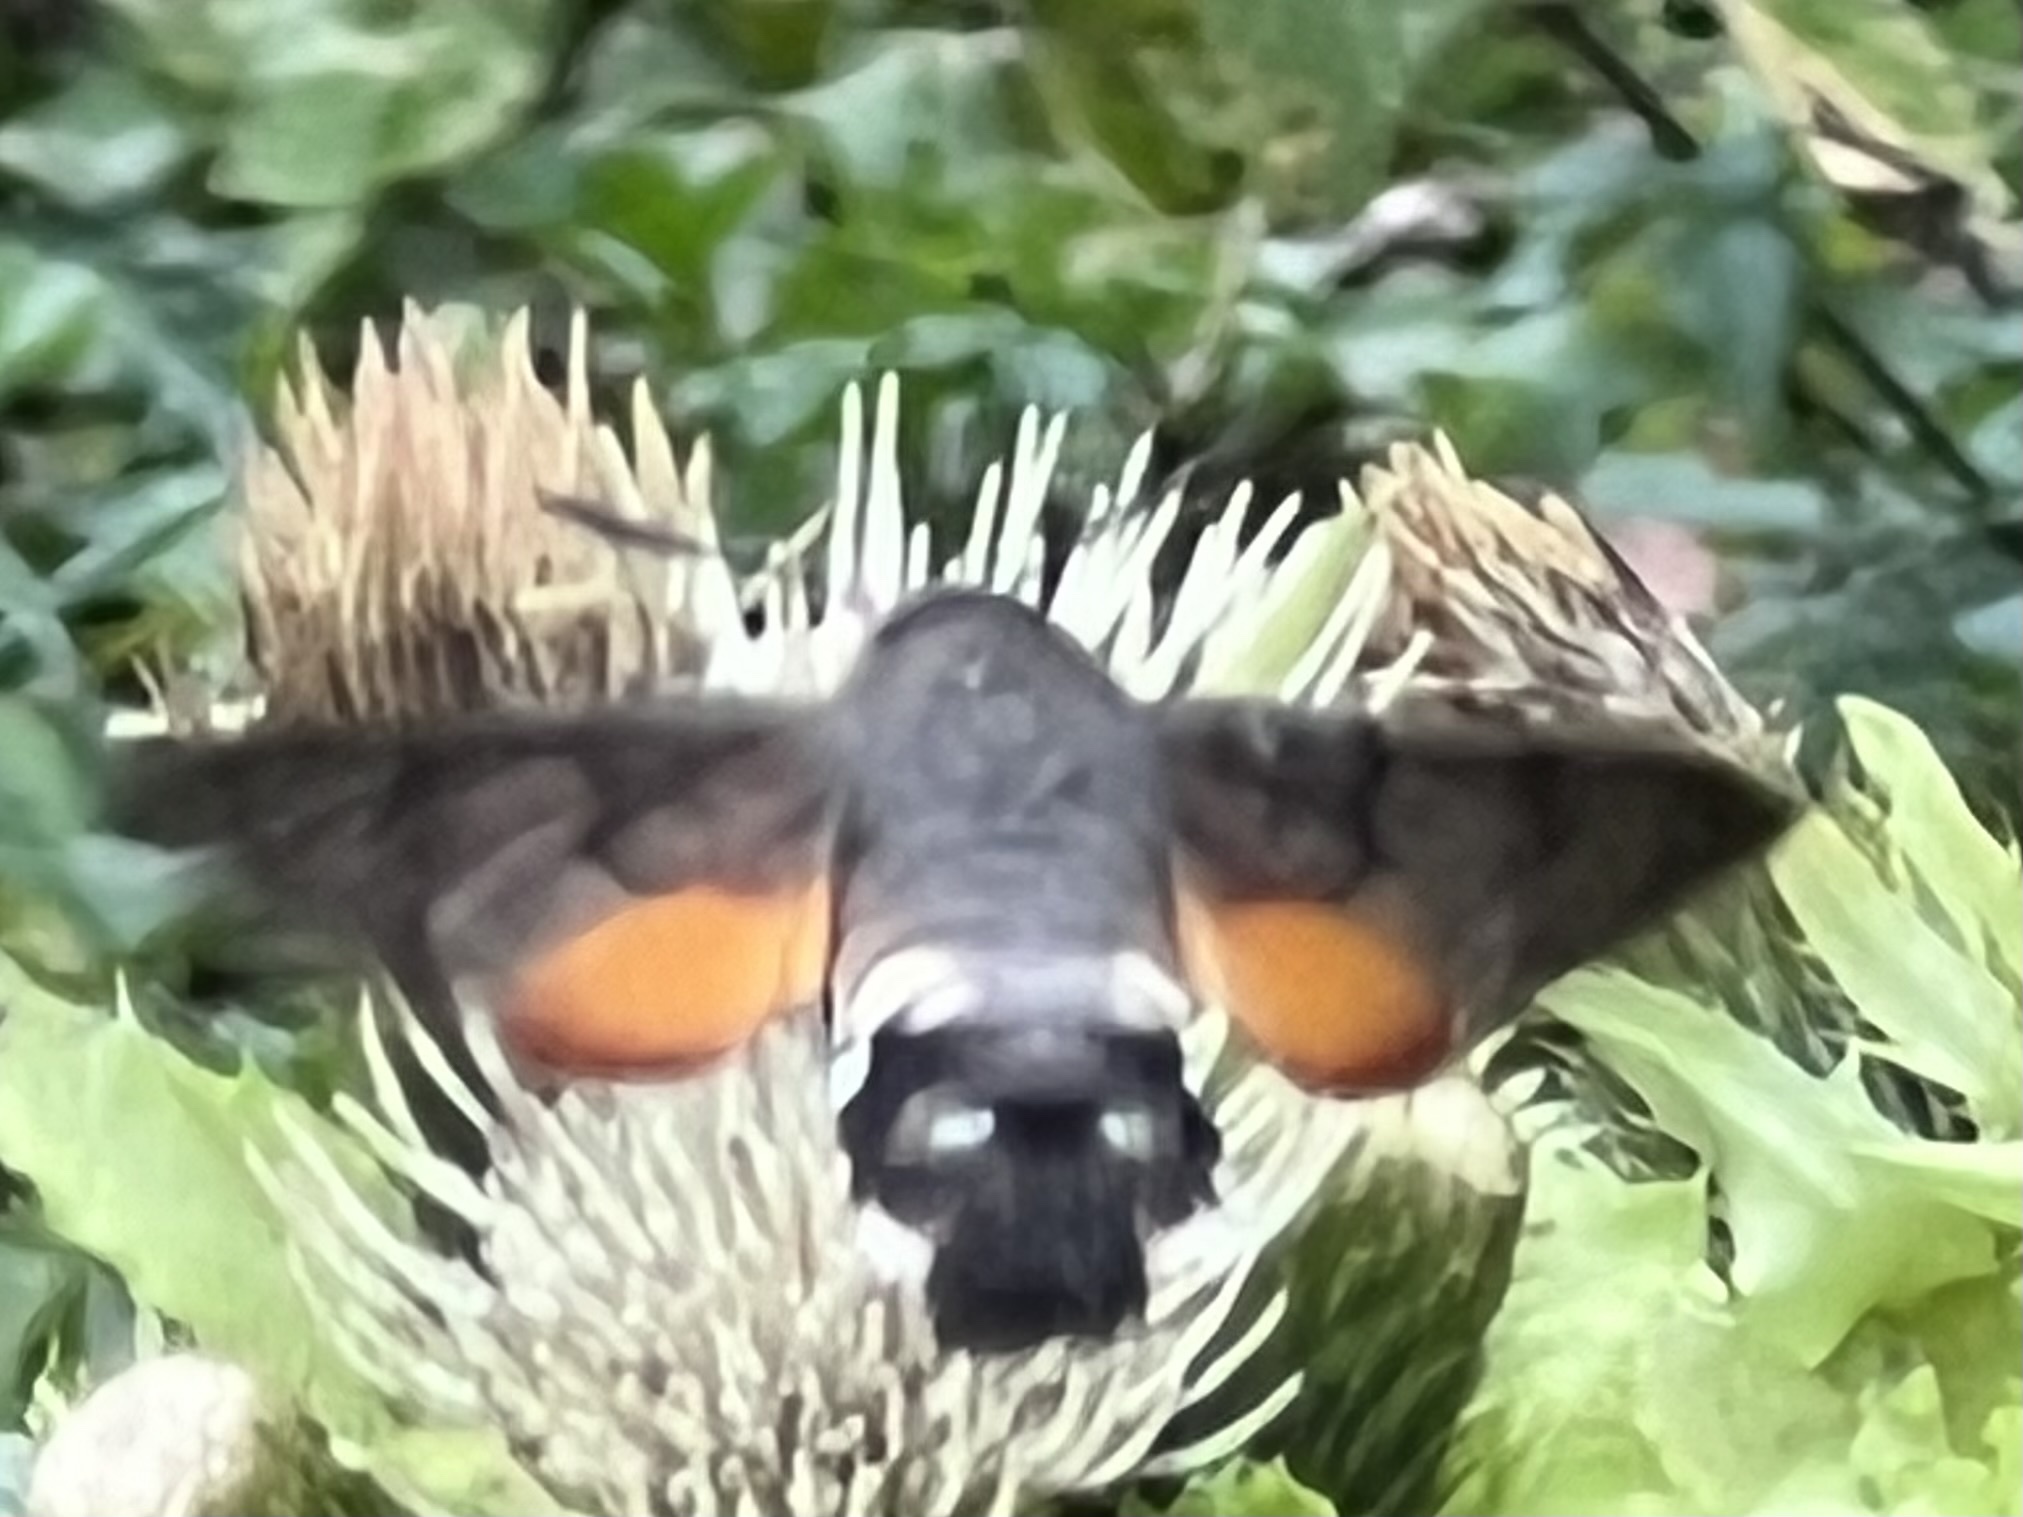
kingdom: Animalia
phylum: Arthropoda
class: Insecta
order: Lepidoptera
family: Sphingidae
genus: Macroglossum
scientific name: Macroglossum stellatarum
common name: Humming-bird hawk-moth
